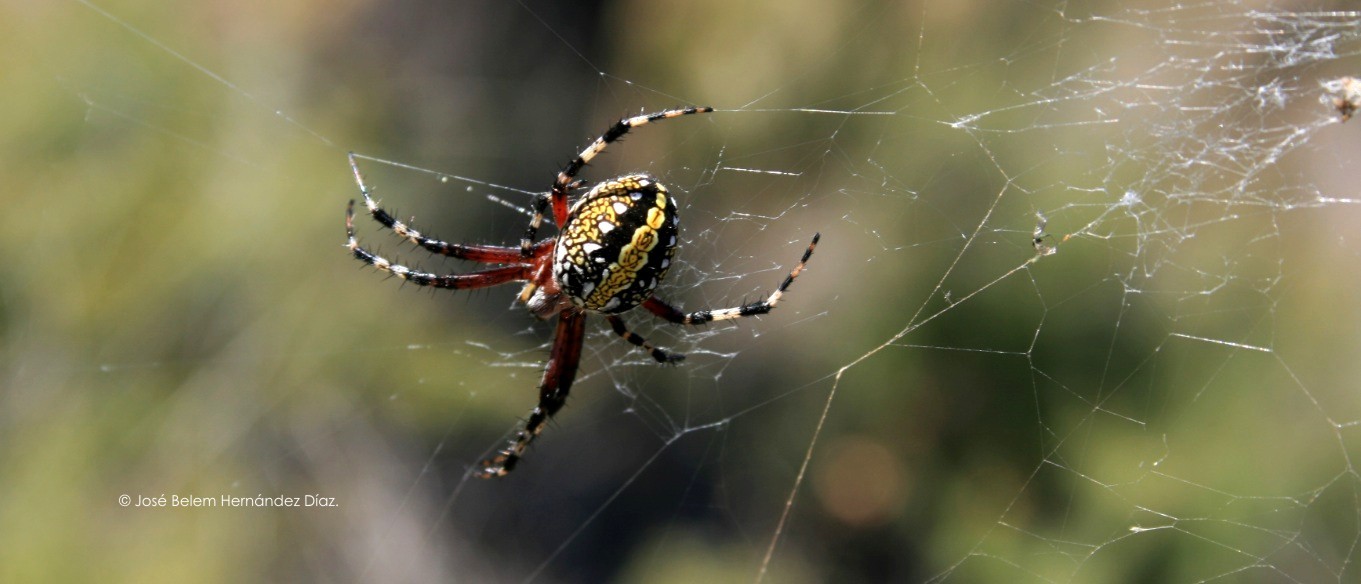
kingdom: Animalia
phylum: Arthropoda
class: Arachnida
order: Araneae
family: Araneidae
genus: Neoscona
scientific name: Neoscona oaxacensis
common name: Orb weavers
